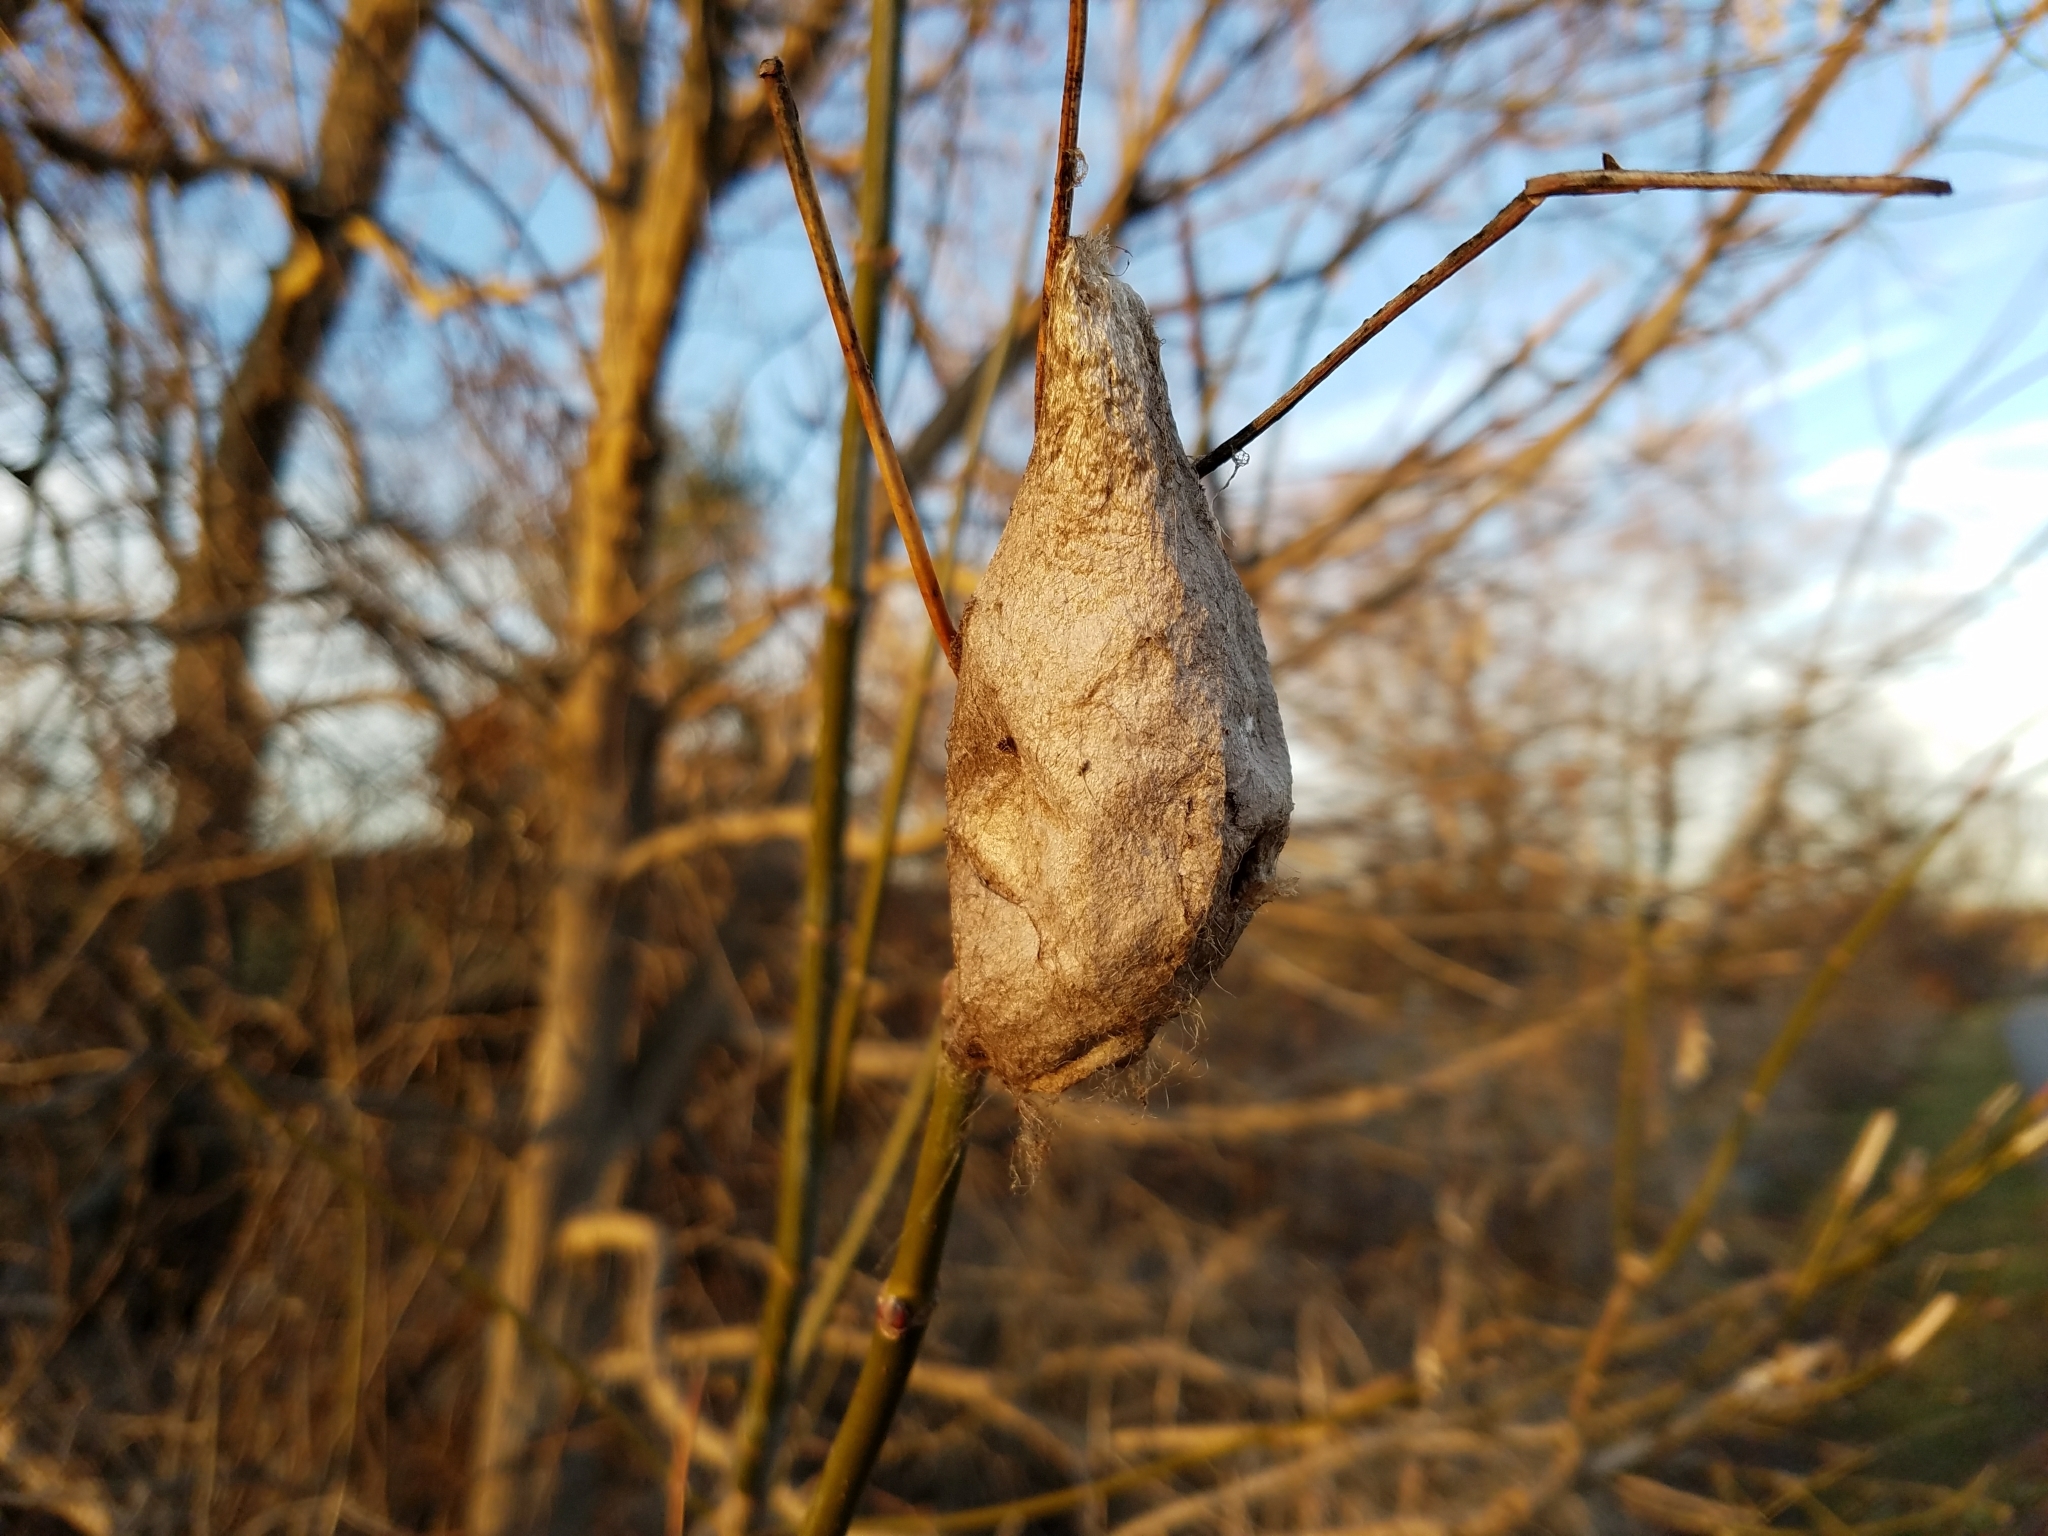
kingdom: Animalia
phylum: Arthropoda
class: Insecta
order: Lepidoptera
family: Saturniidae
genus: Hyalophora
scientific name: Hyalophora cecropia
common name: Cecropia silkmoth
